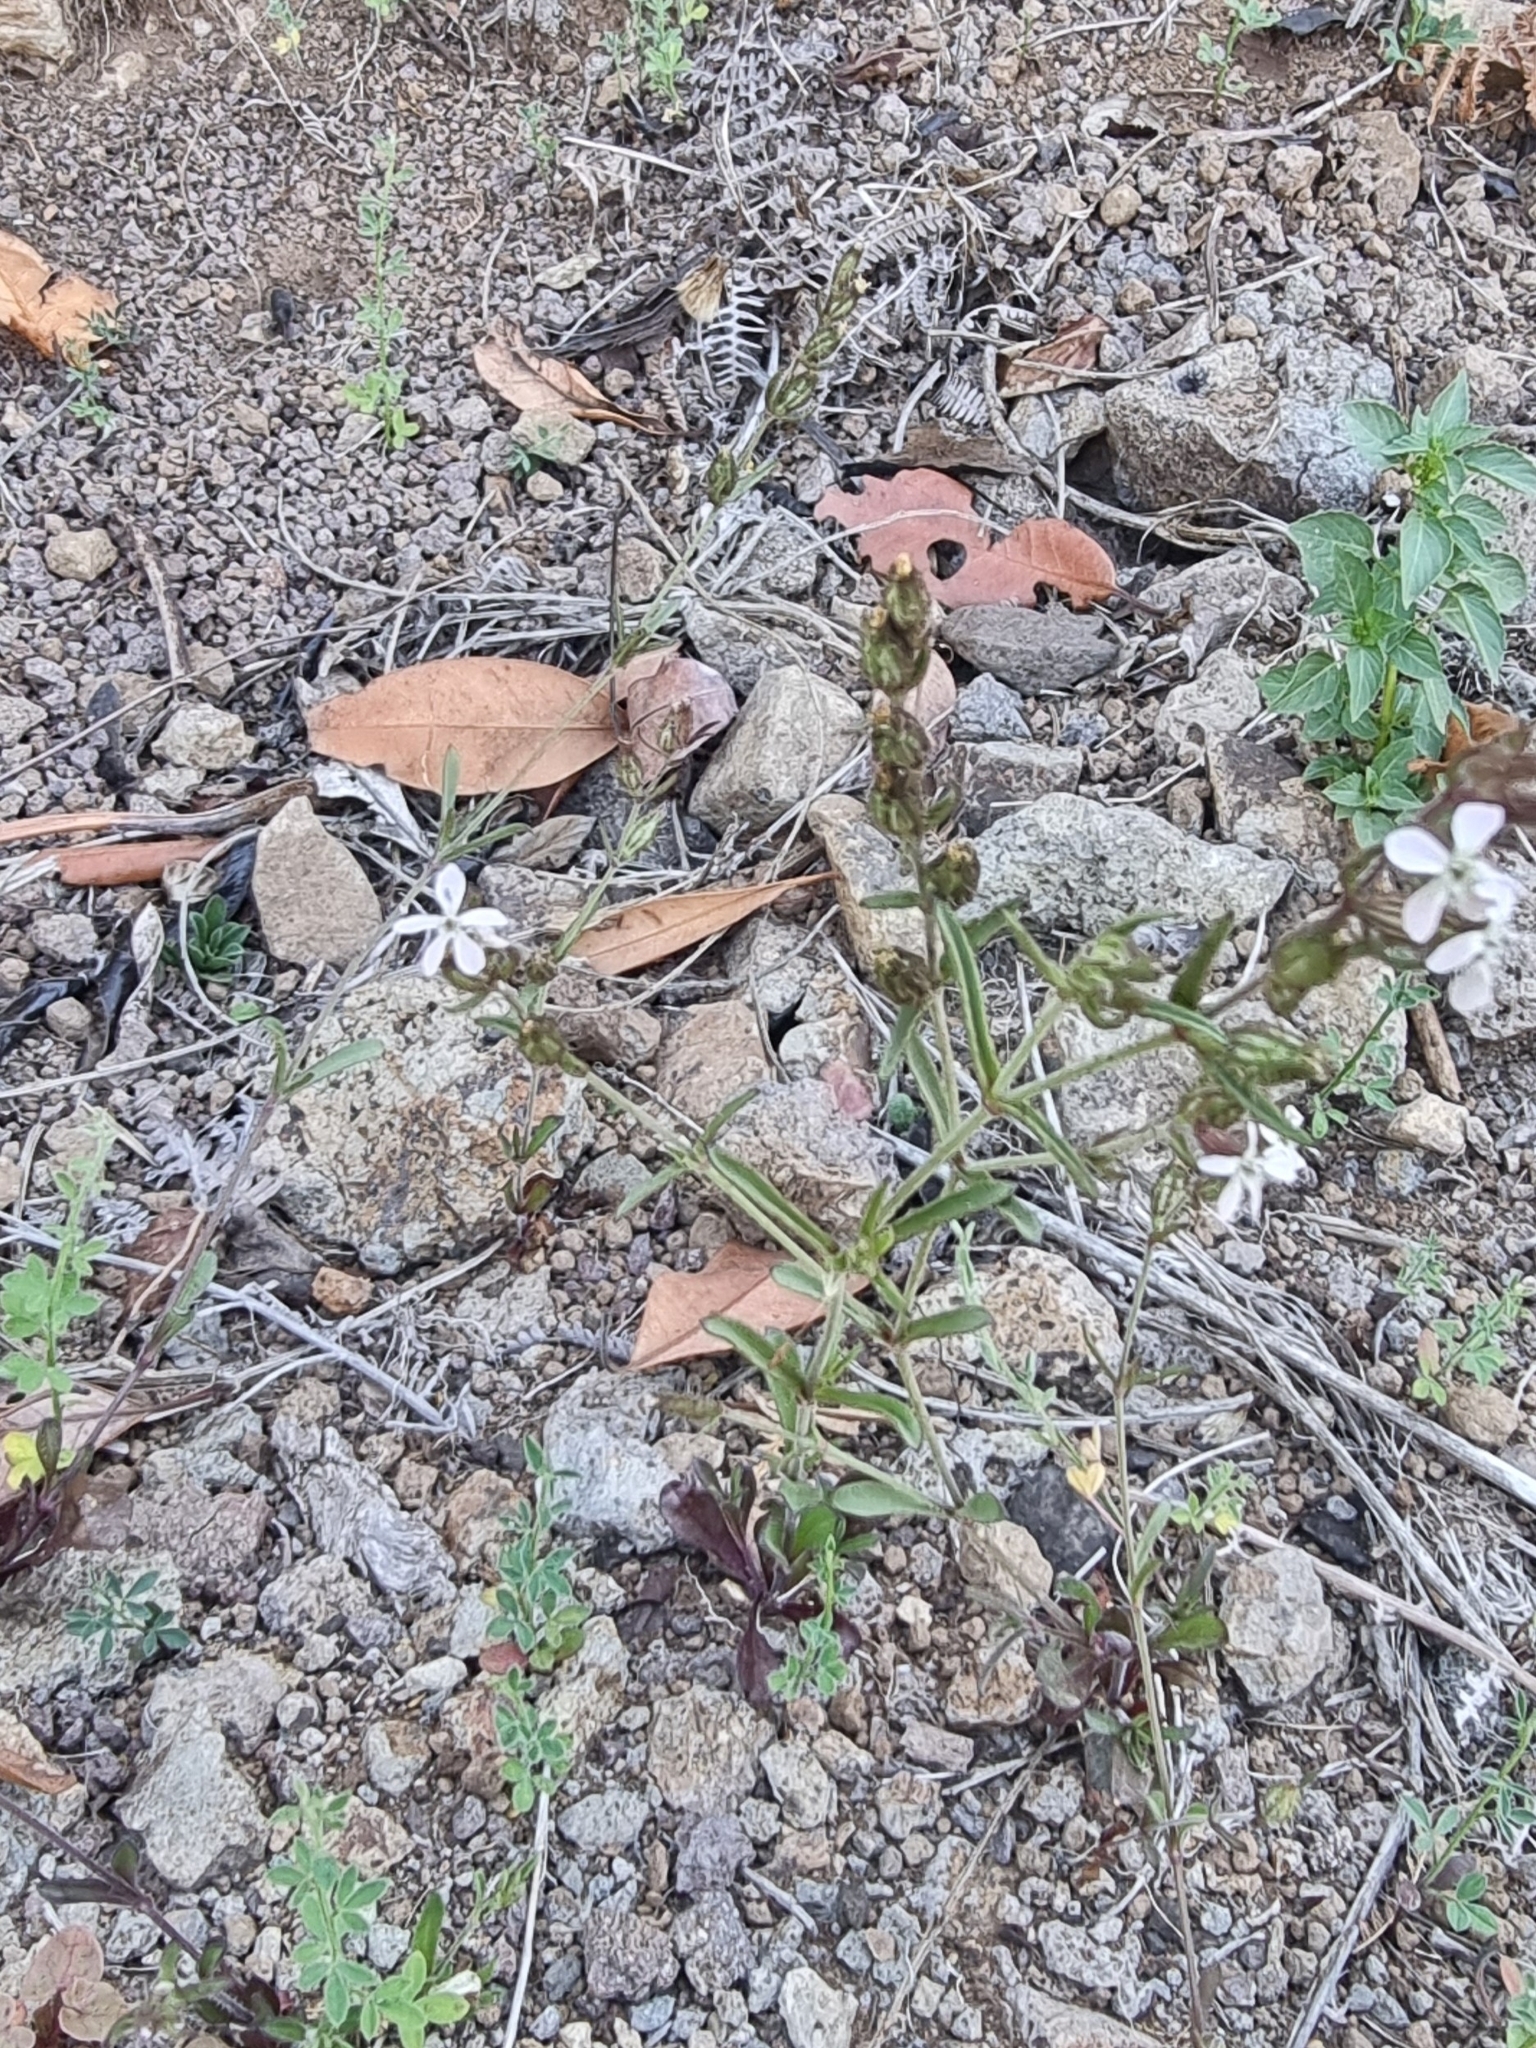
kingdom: Plantae
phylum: Tracheophyta
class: Magnoliopsida
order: Caryophyllales
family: Caryophyllaceae
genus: Silene
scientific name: Silene gallica
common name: Small-flowered catchfly
